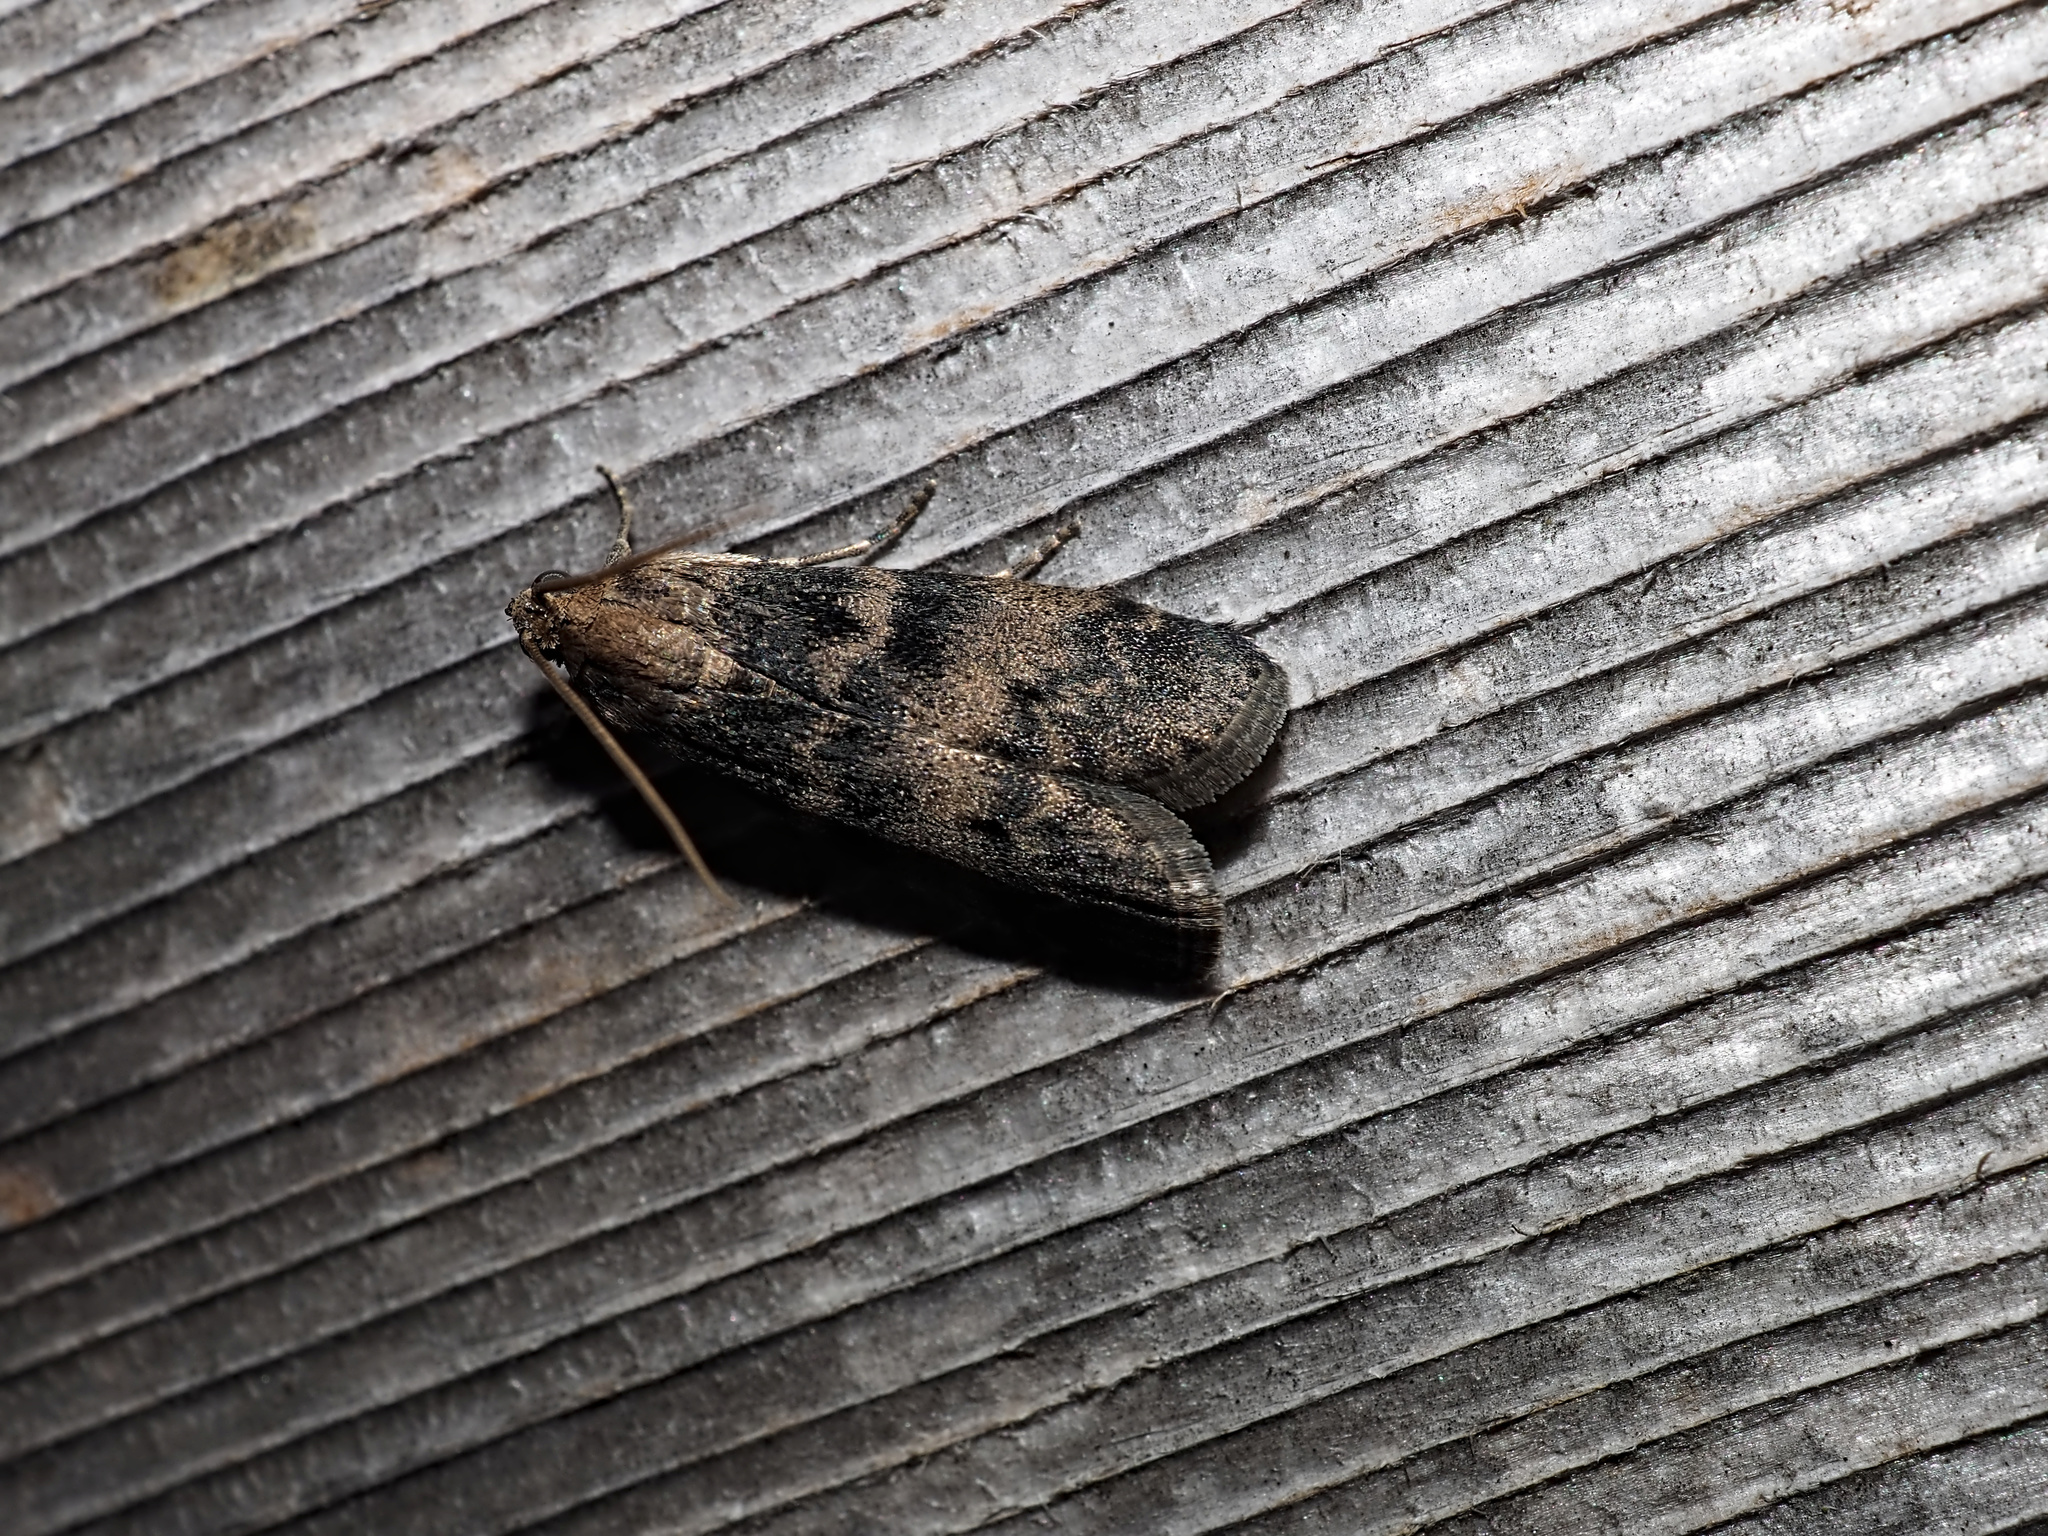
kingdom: Animalia
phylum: Arthropoda
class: Insecta
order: Lepidoptera
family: Pyralidae
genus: Euzophera
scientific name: Euzophera pinguis
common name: Ash-bark knot-horn
